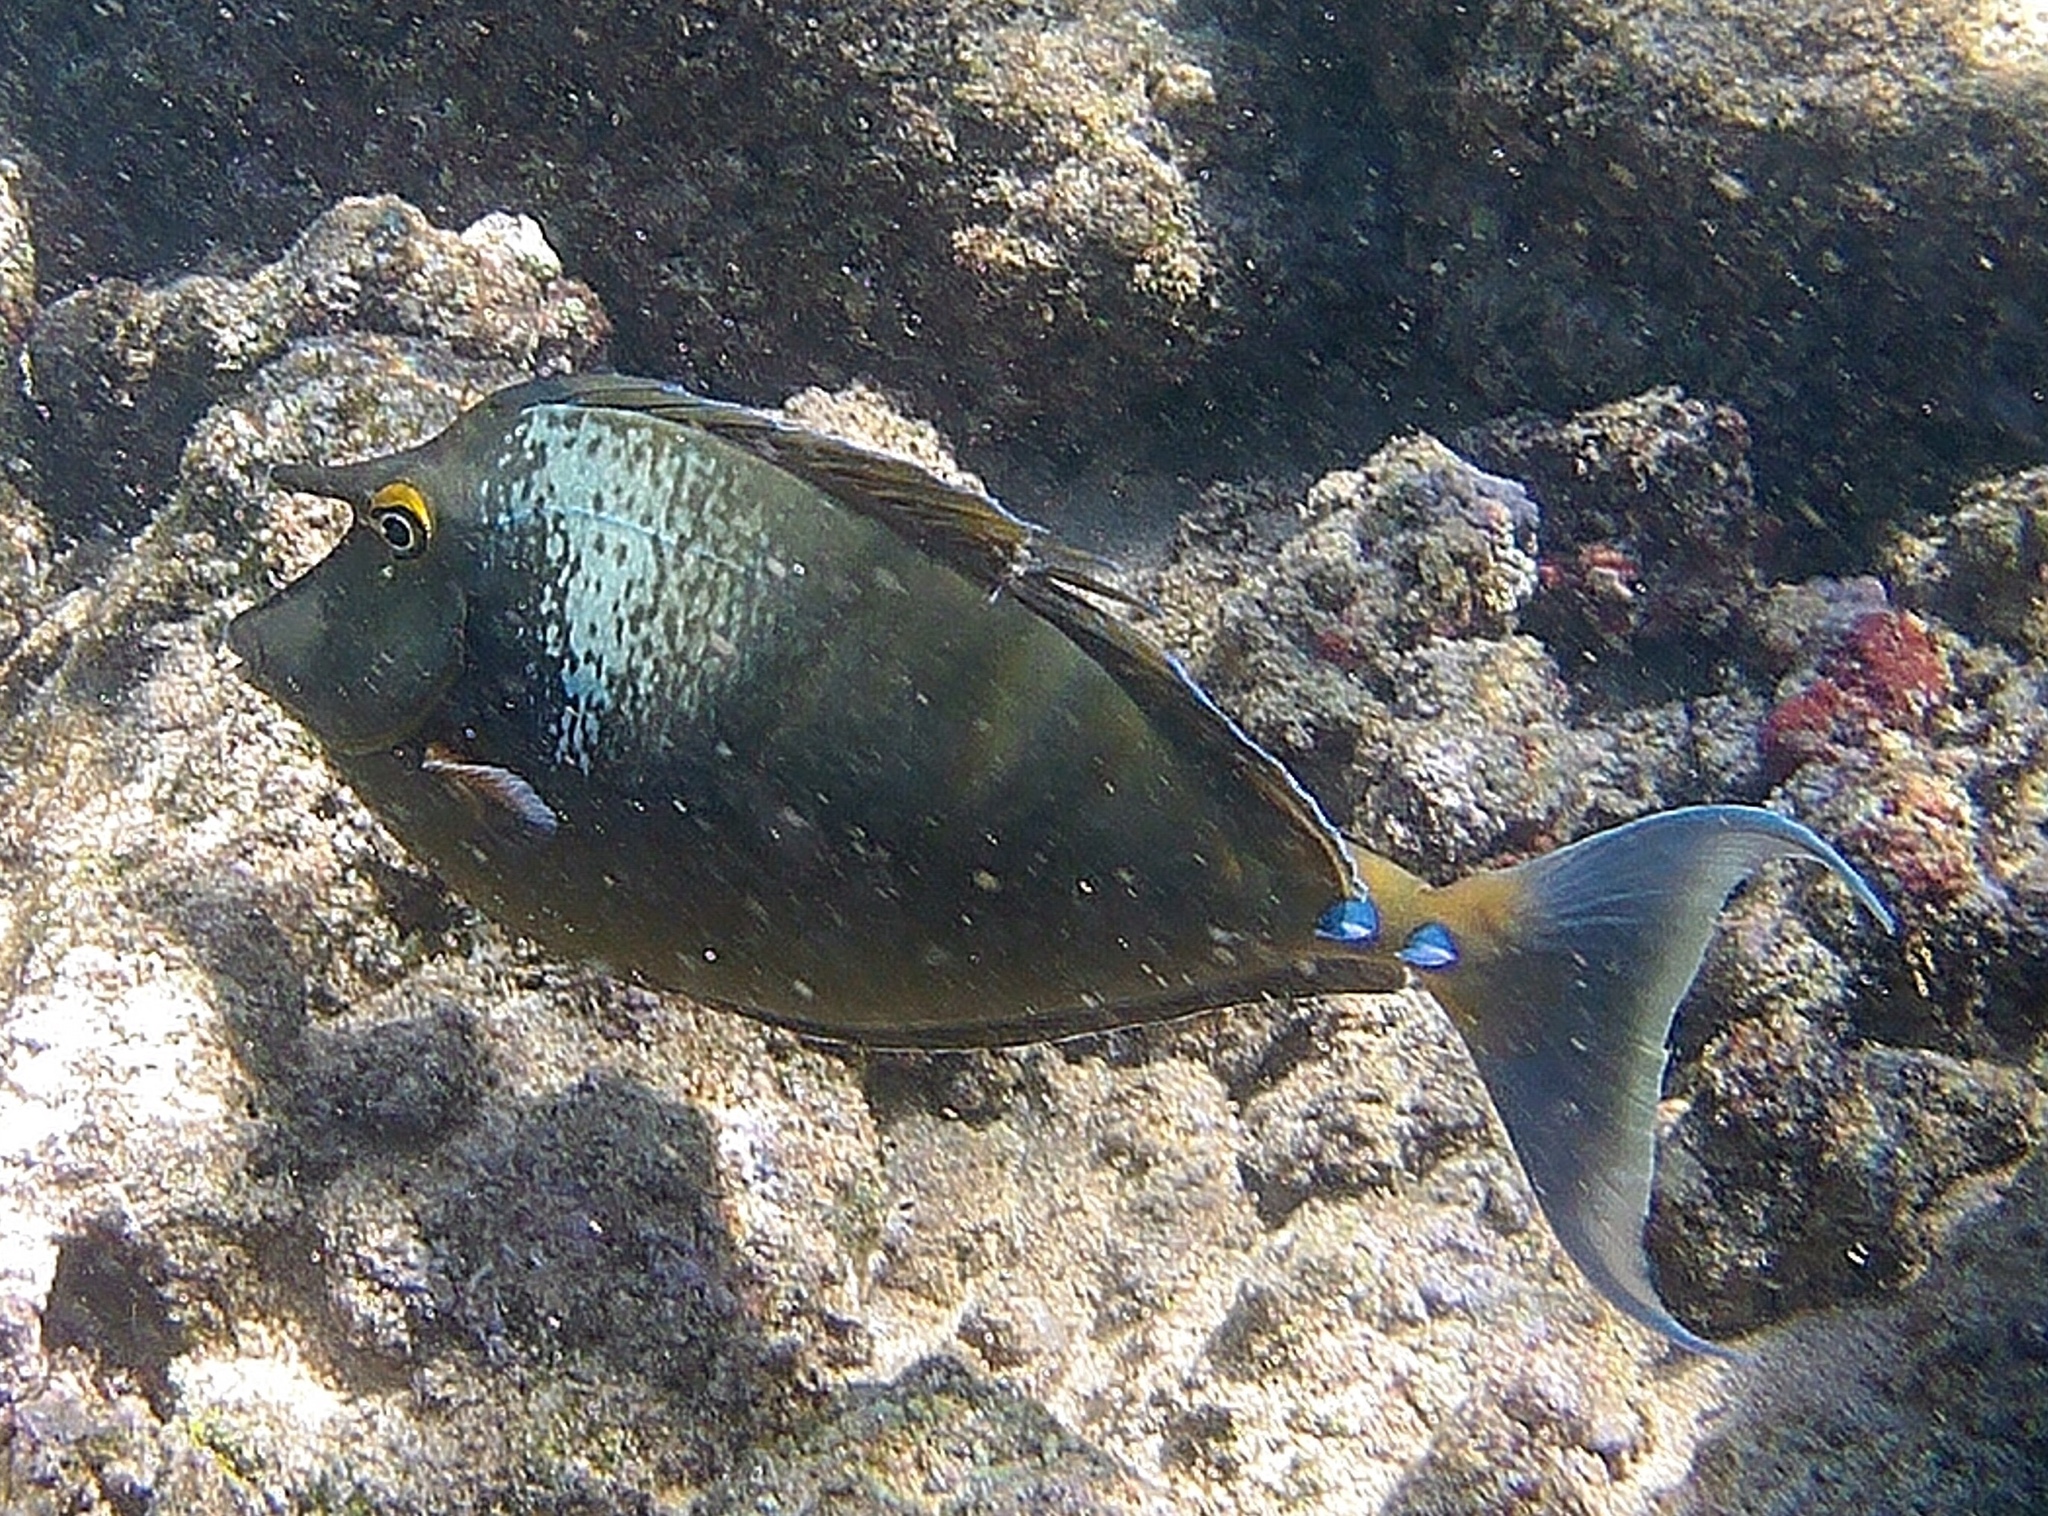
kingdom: Animalia
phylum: Chordata
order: Perciformes
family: Acanthuridae
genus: Naso
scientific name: Naso unicornis
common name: Bluespine unicornfish
